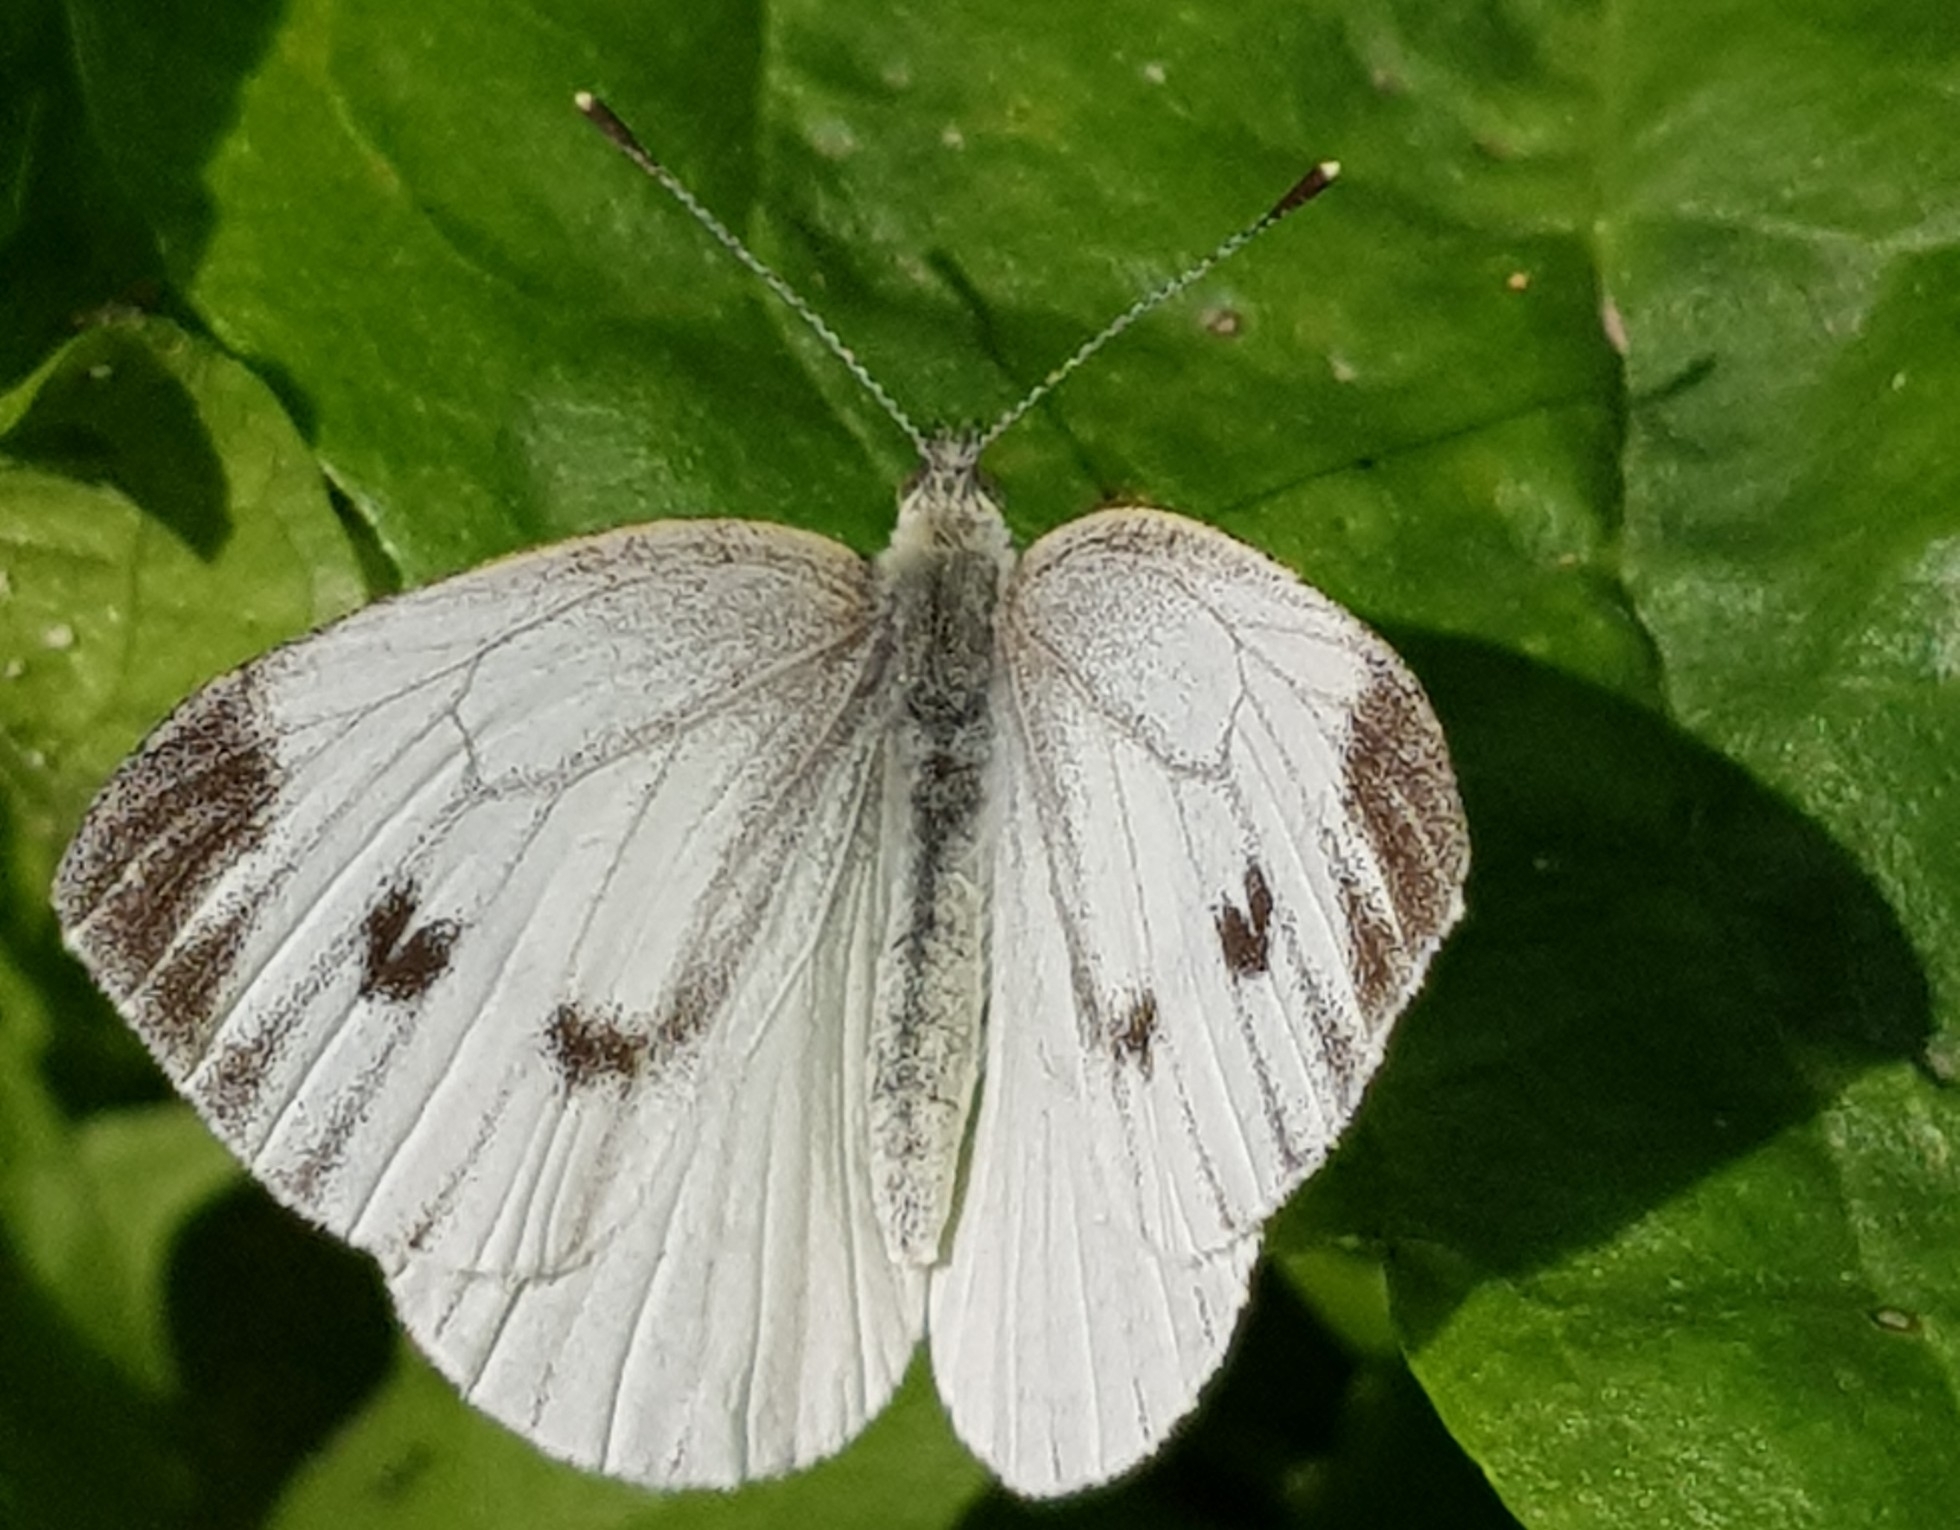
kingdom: Animalia
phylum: Arthropoda
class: Insecta
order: Lepidoptera
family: Pieridae
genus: Pieris
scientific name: Pieris napi
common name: Green-veined white
